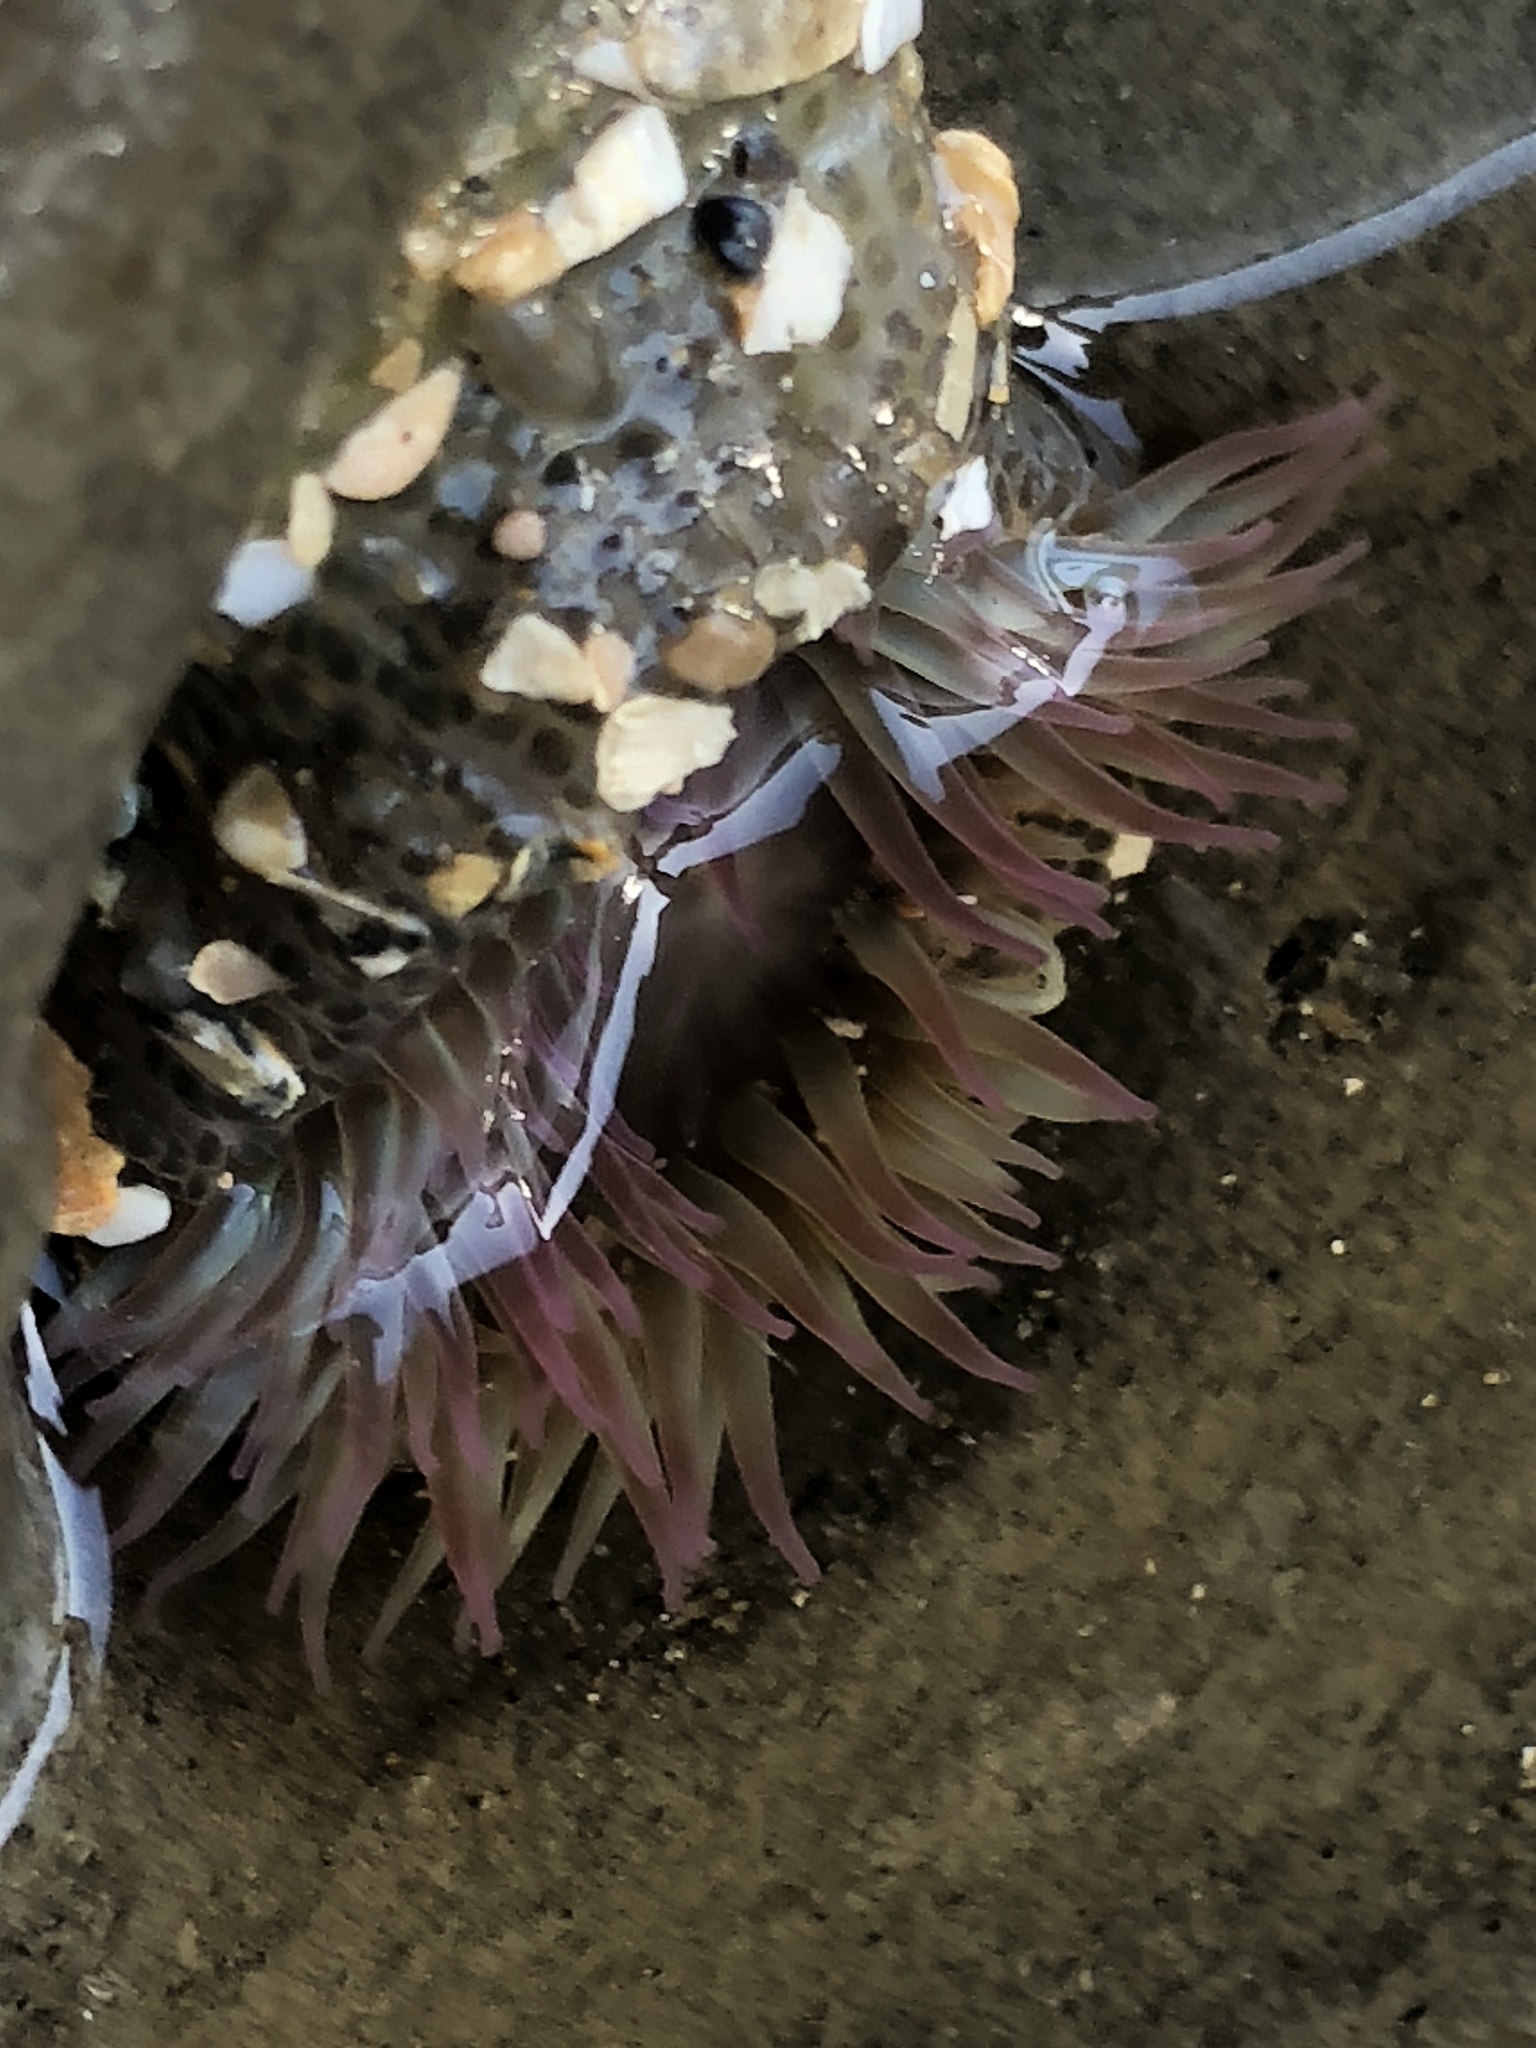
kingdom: Animalia
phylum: Cnidaria
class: Anthozoa
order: Actiniaria
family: Actiniidae
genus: Anthopleura
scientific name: Anthopleura elegantissima
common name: Clonal anemone
